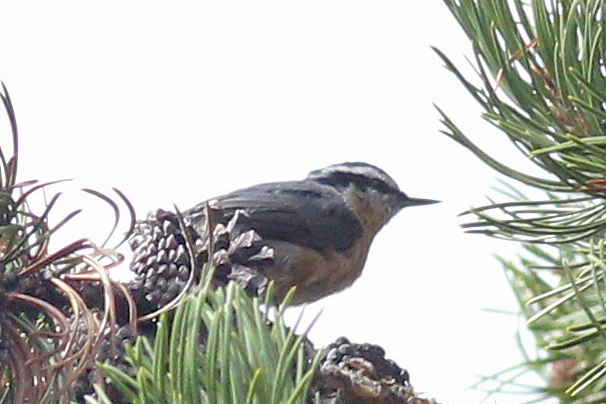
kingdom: Animalia
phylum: Chordata
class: Aves
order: Passeriformes
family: Sittidae
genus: Sitta
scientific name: Sitta canadensis
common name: Red-breasted nuthatch
